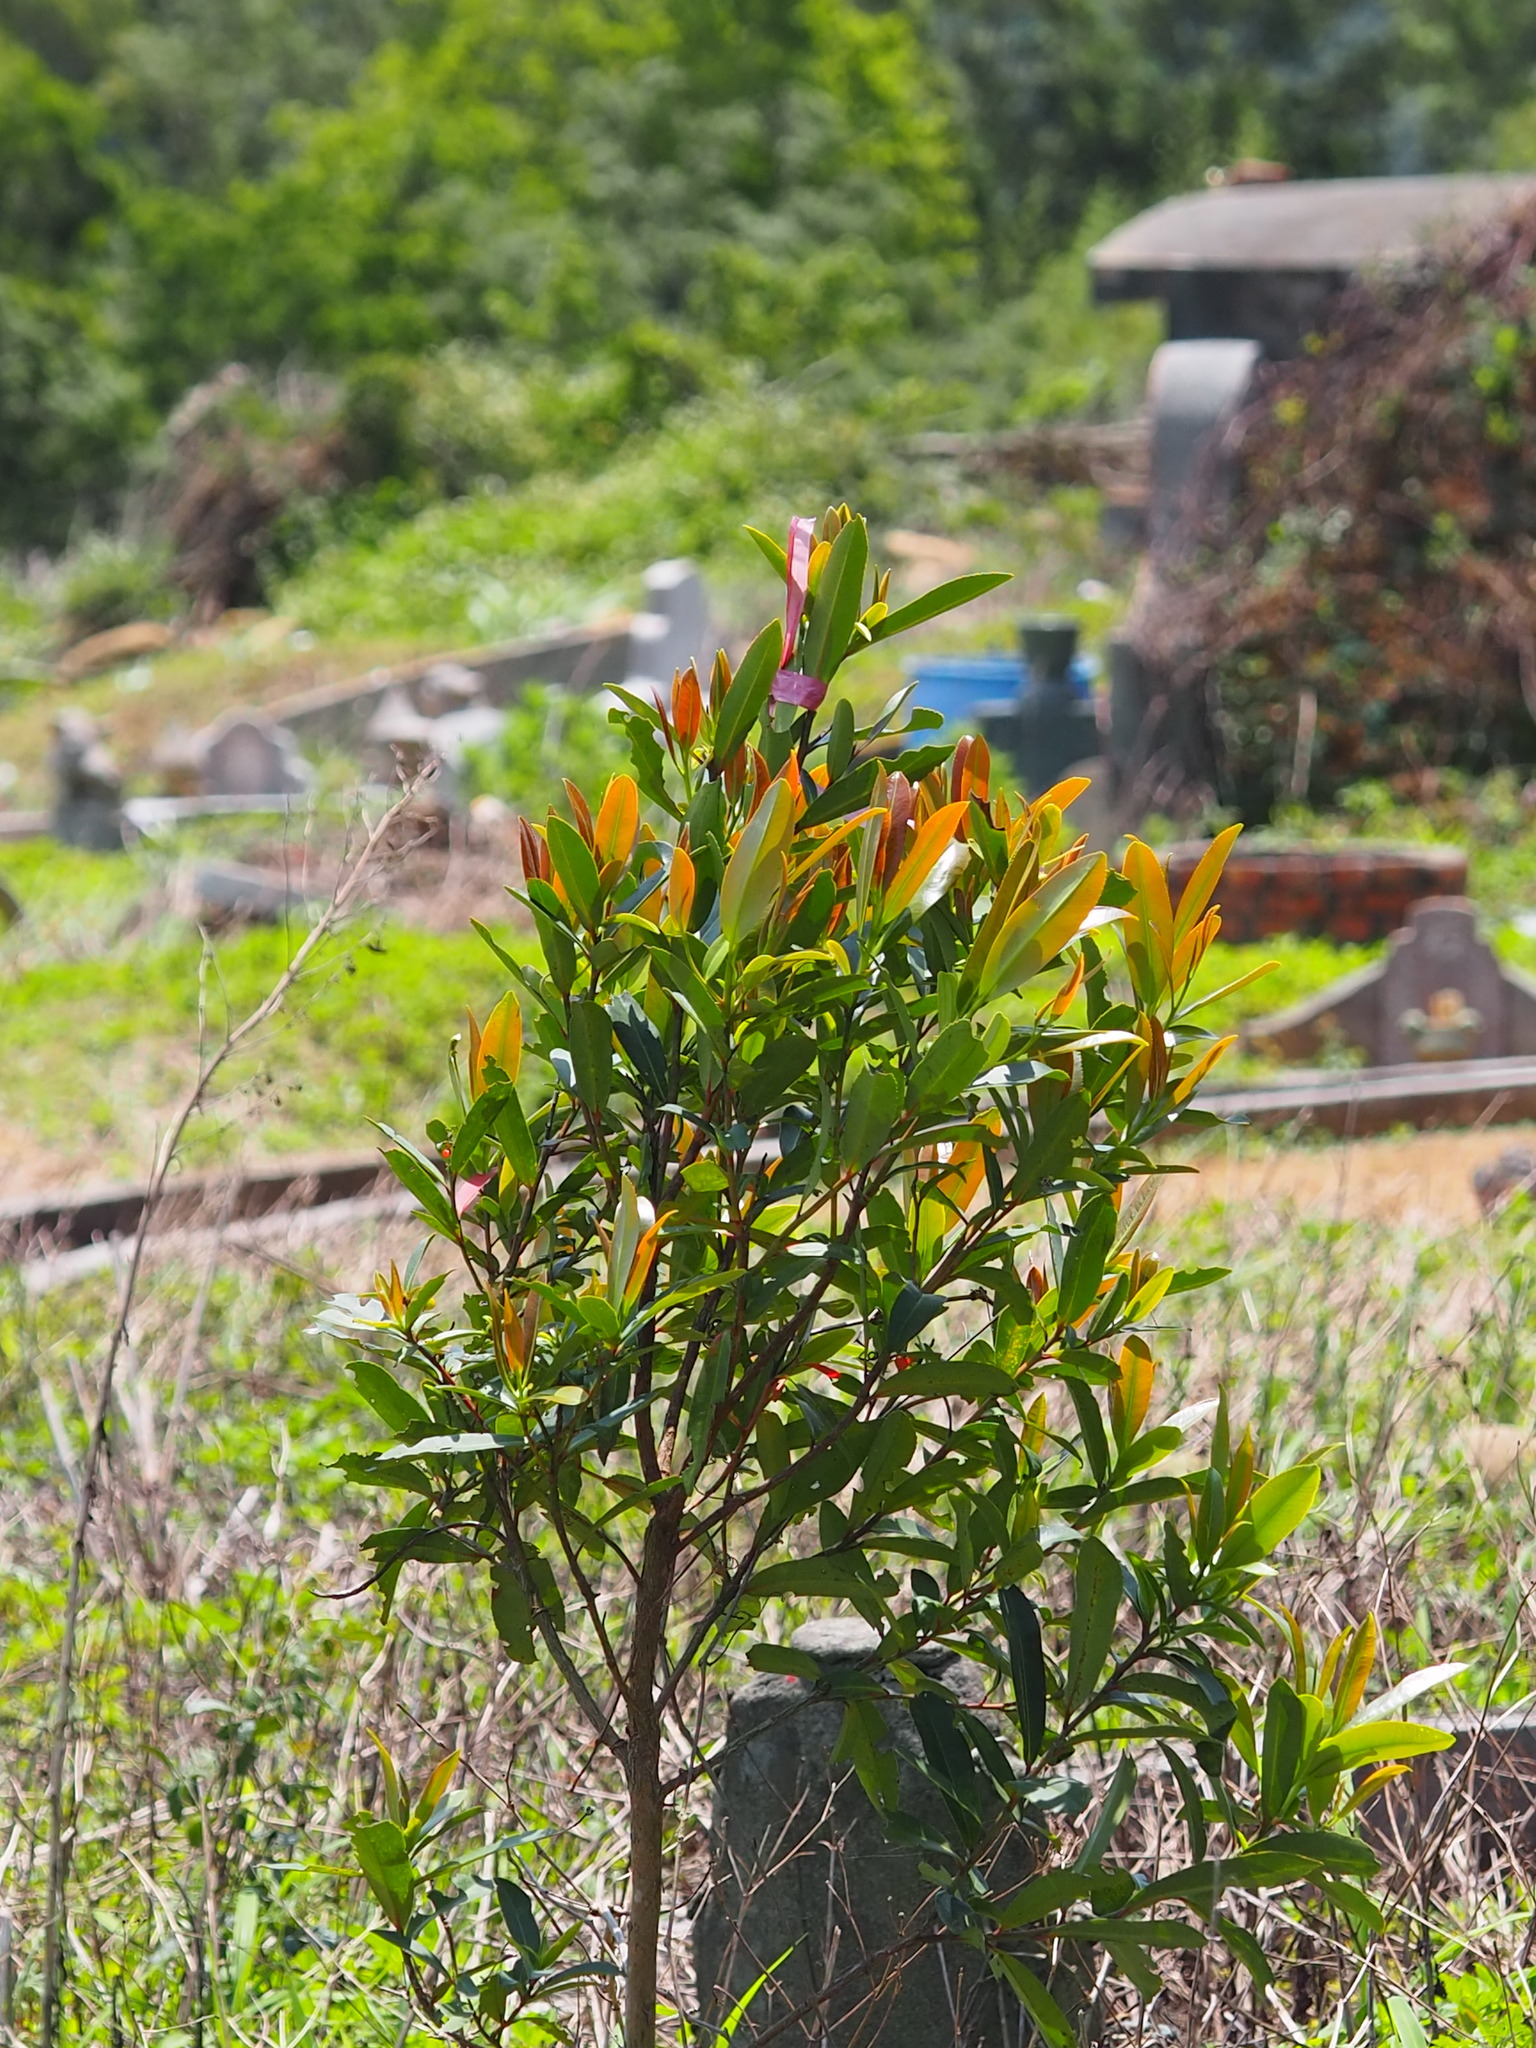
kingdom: Plantae
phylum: Tracheophyta
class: Magnoliopsida
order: Ericales
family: Theaceae
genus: Polyspora
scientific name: Polyspora axillaris
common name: Fried egg tree
